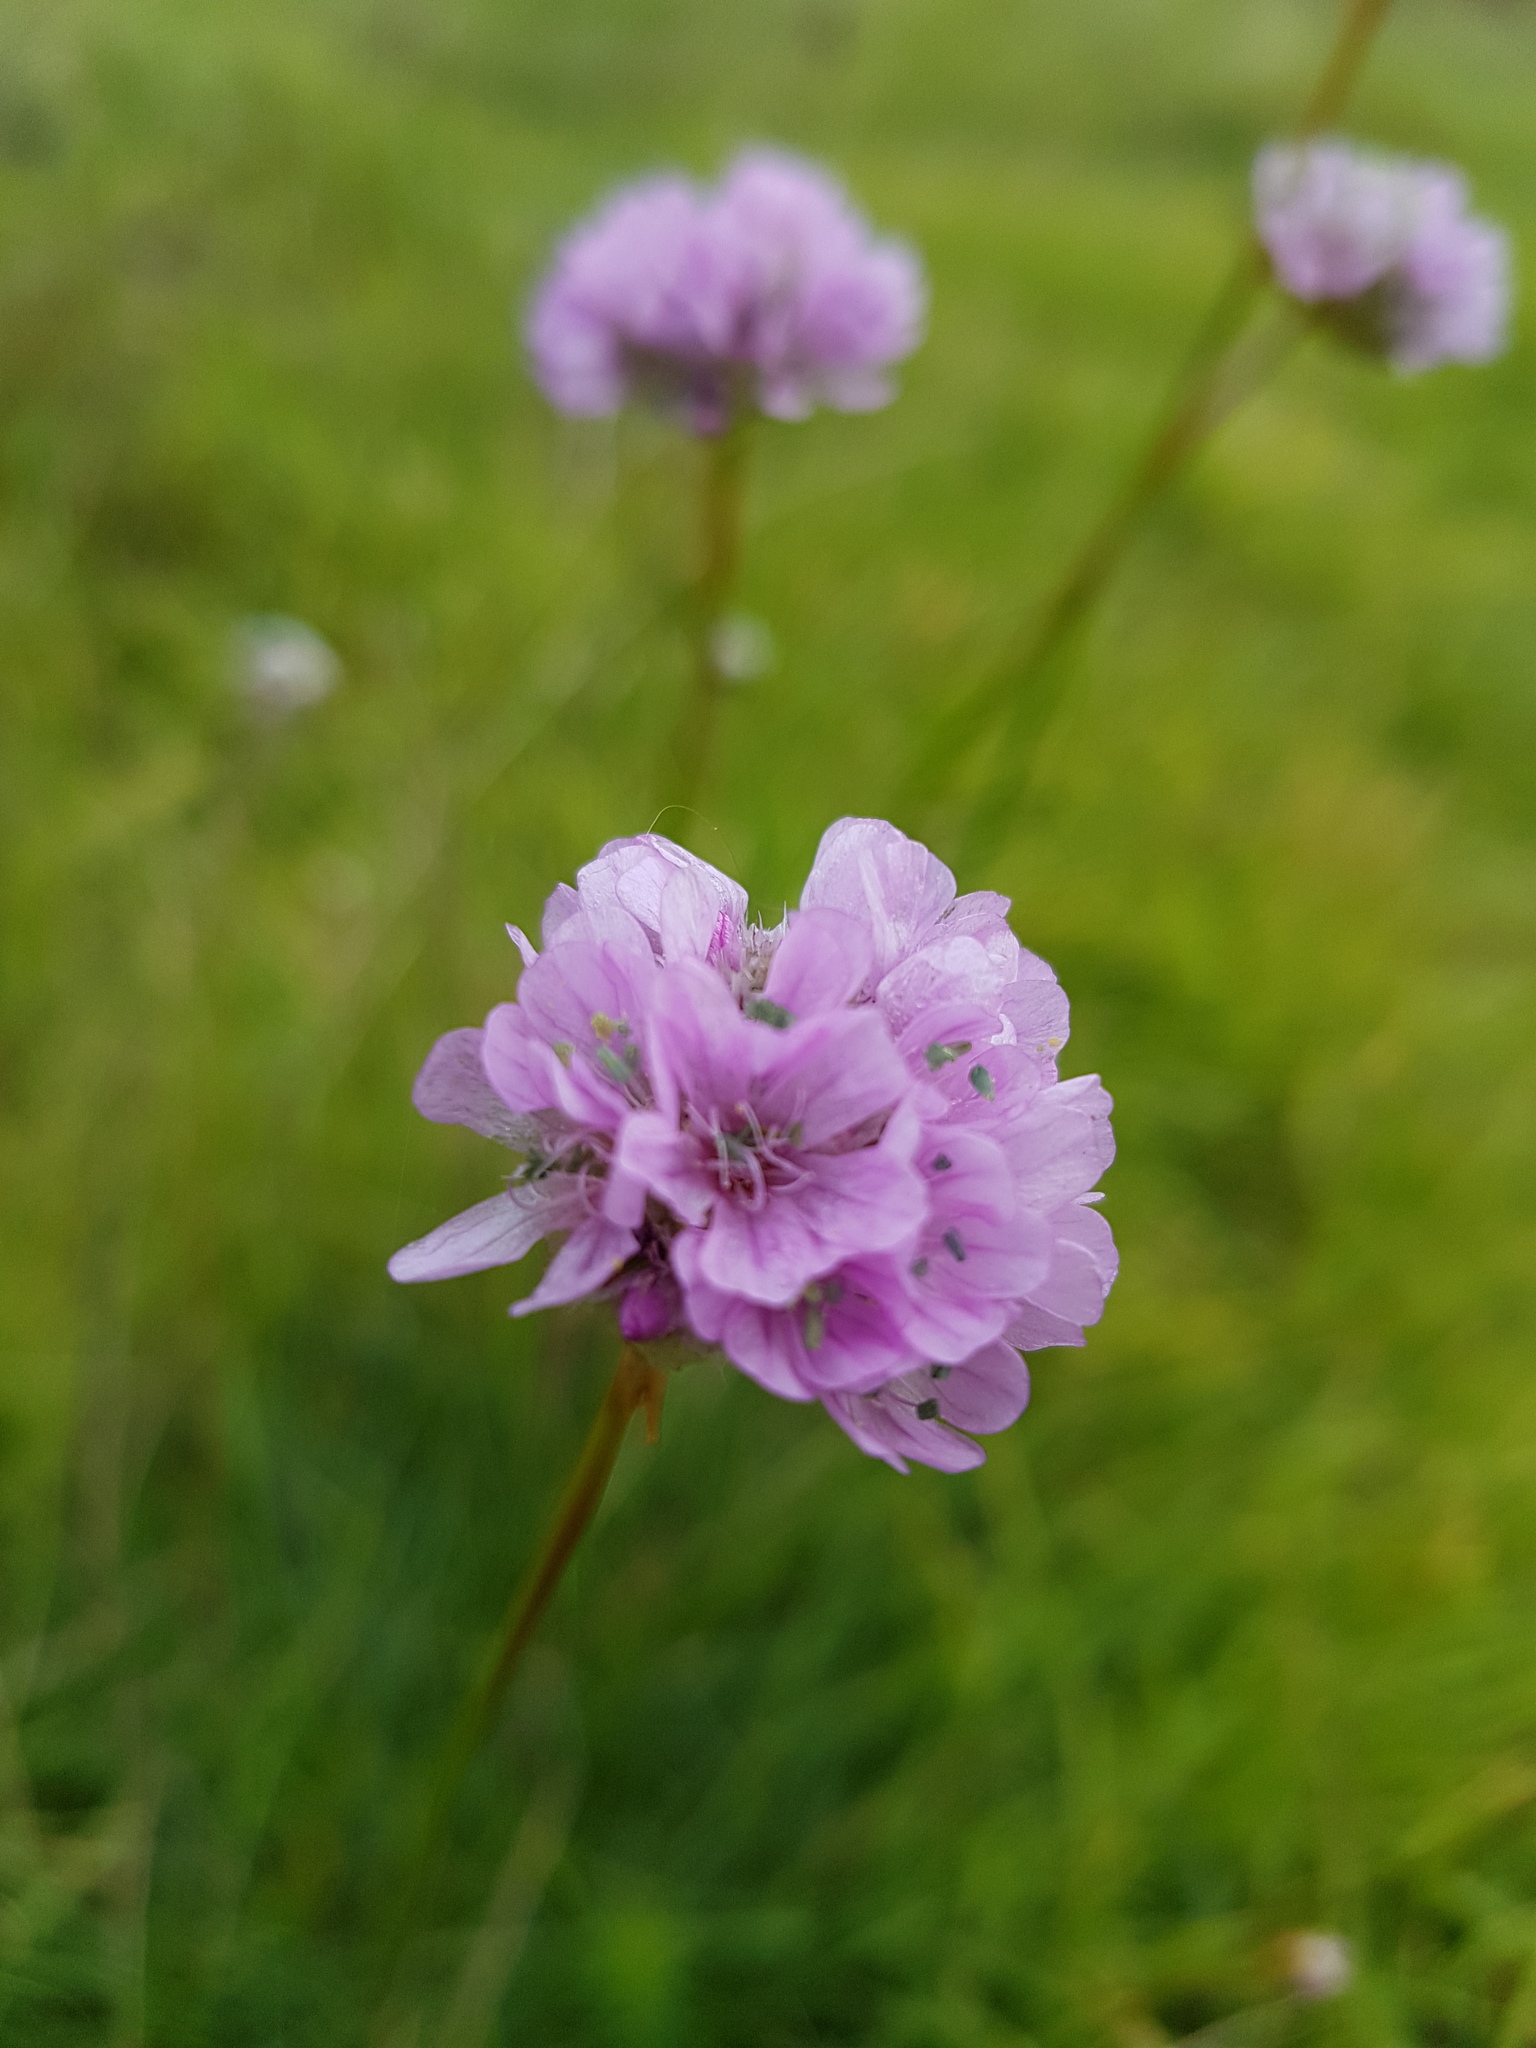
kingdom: Plantae
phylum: Tracheophyta
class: Magnoliopsida
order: Caryophyllales
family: Plumbaginaceae
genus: Armeria
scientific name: Armeria maritima
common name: Thrift
